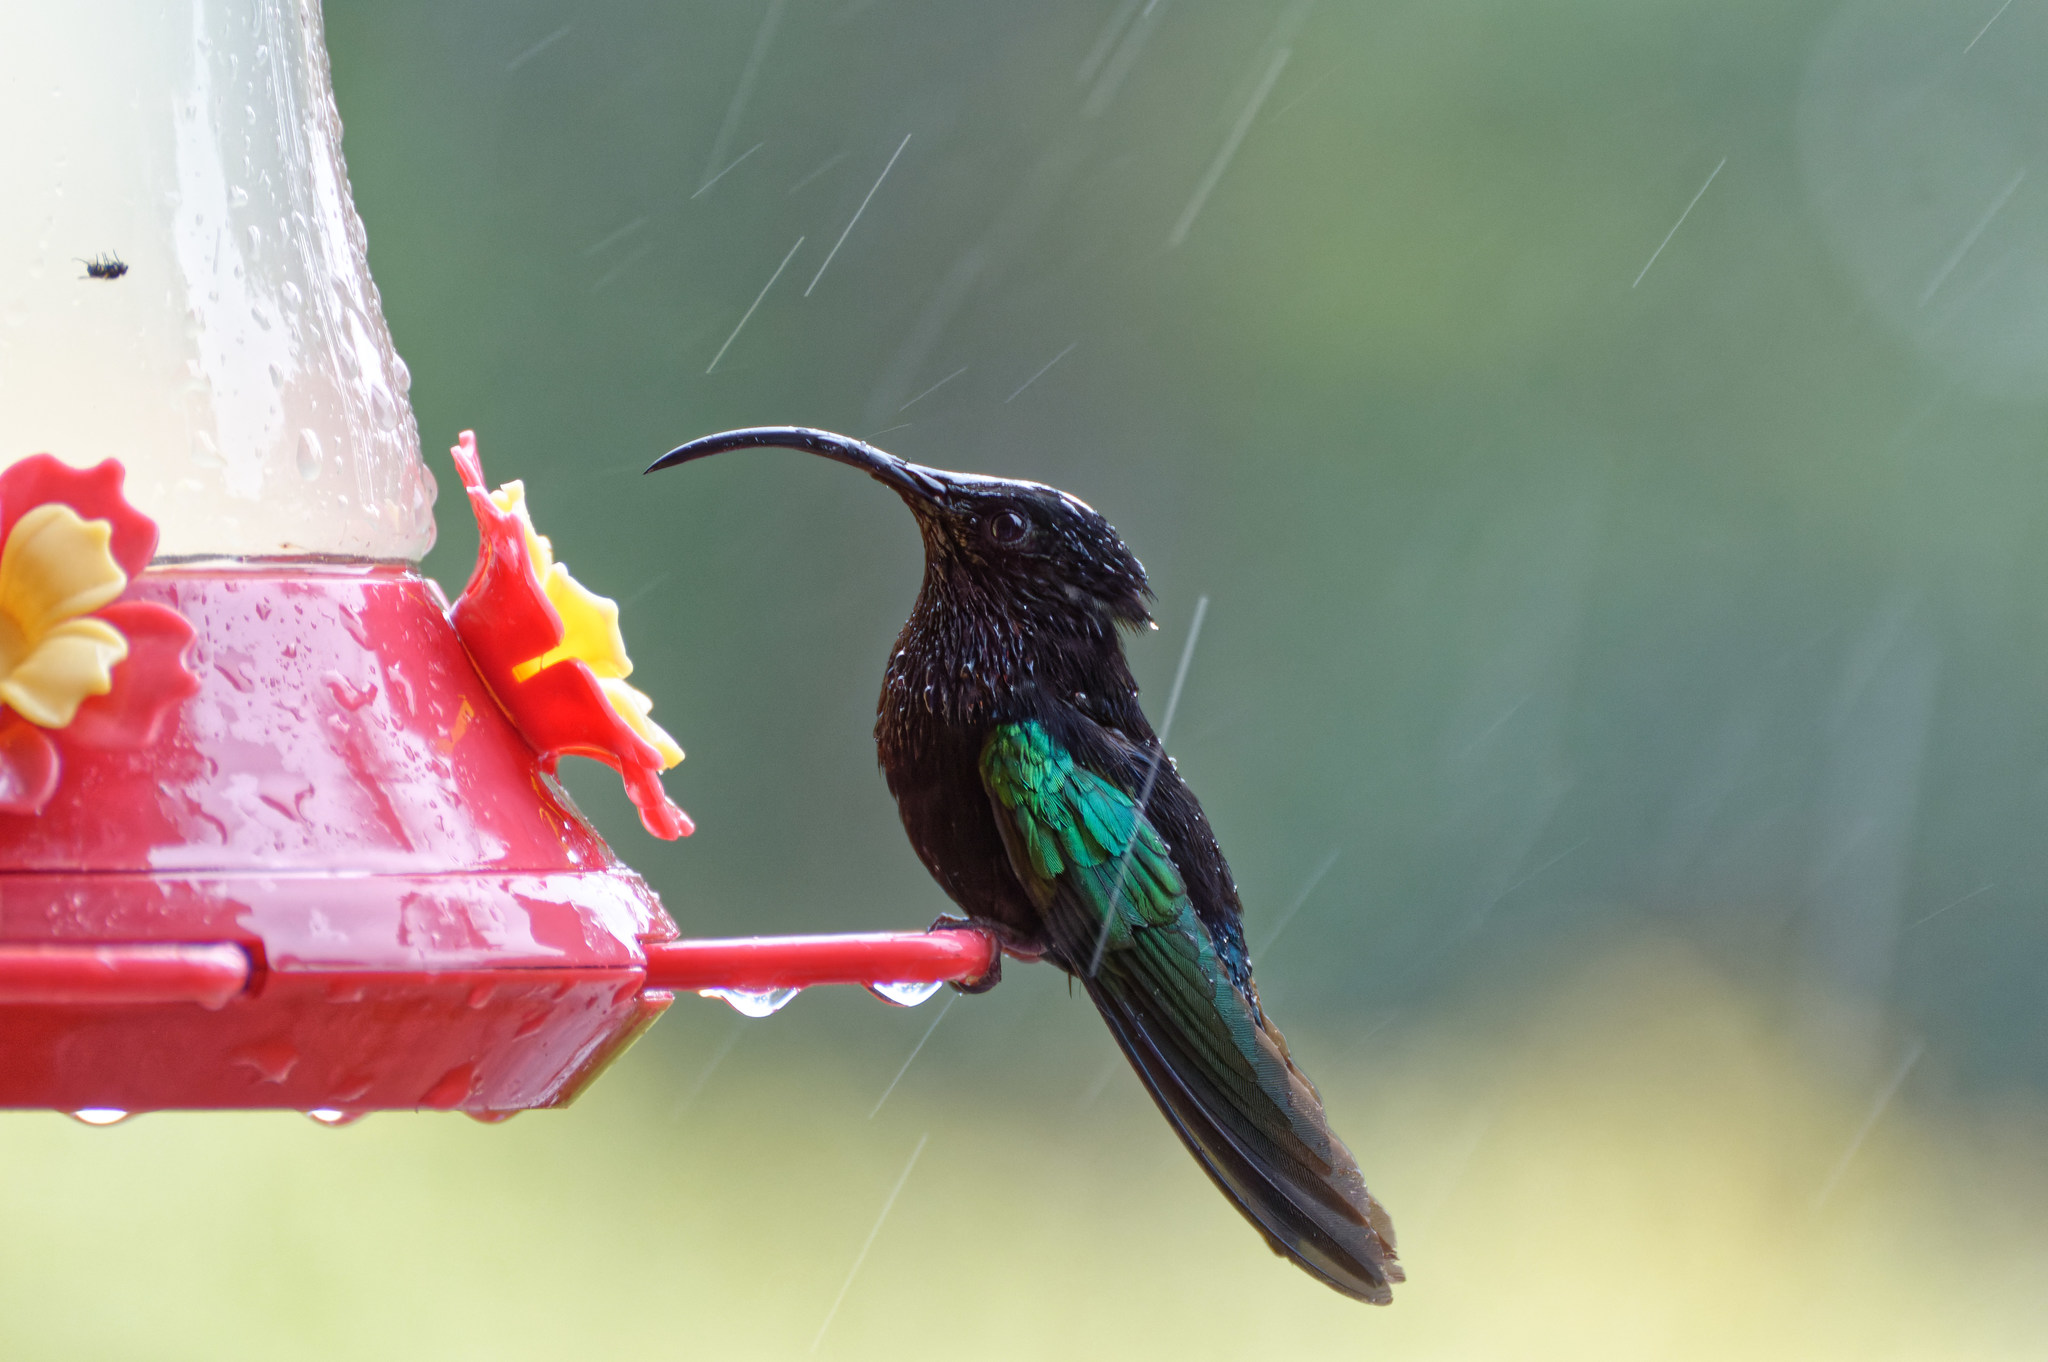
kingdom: Animalia
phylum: Chordata
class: Aves
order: Apodiformes
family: Trochilidae
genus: Eulampis
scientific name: Eulampis jugularis
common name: Purple-throated carib
